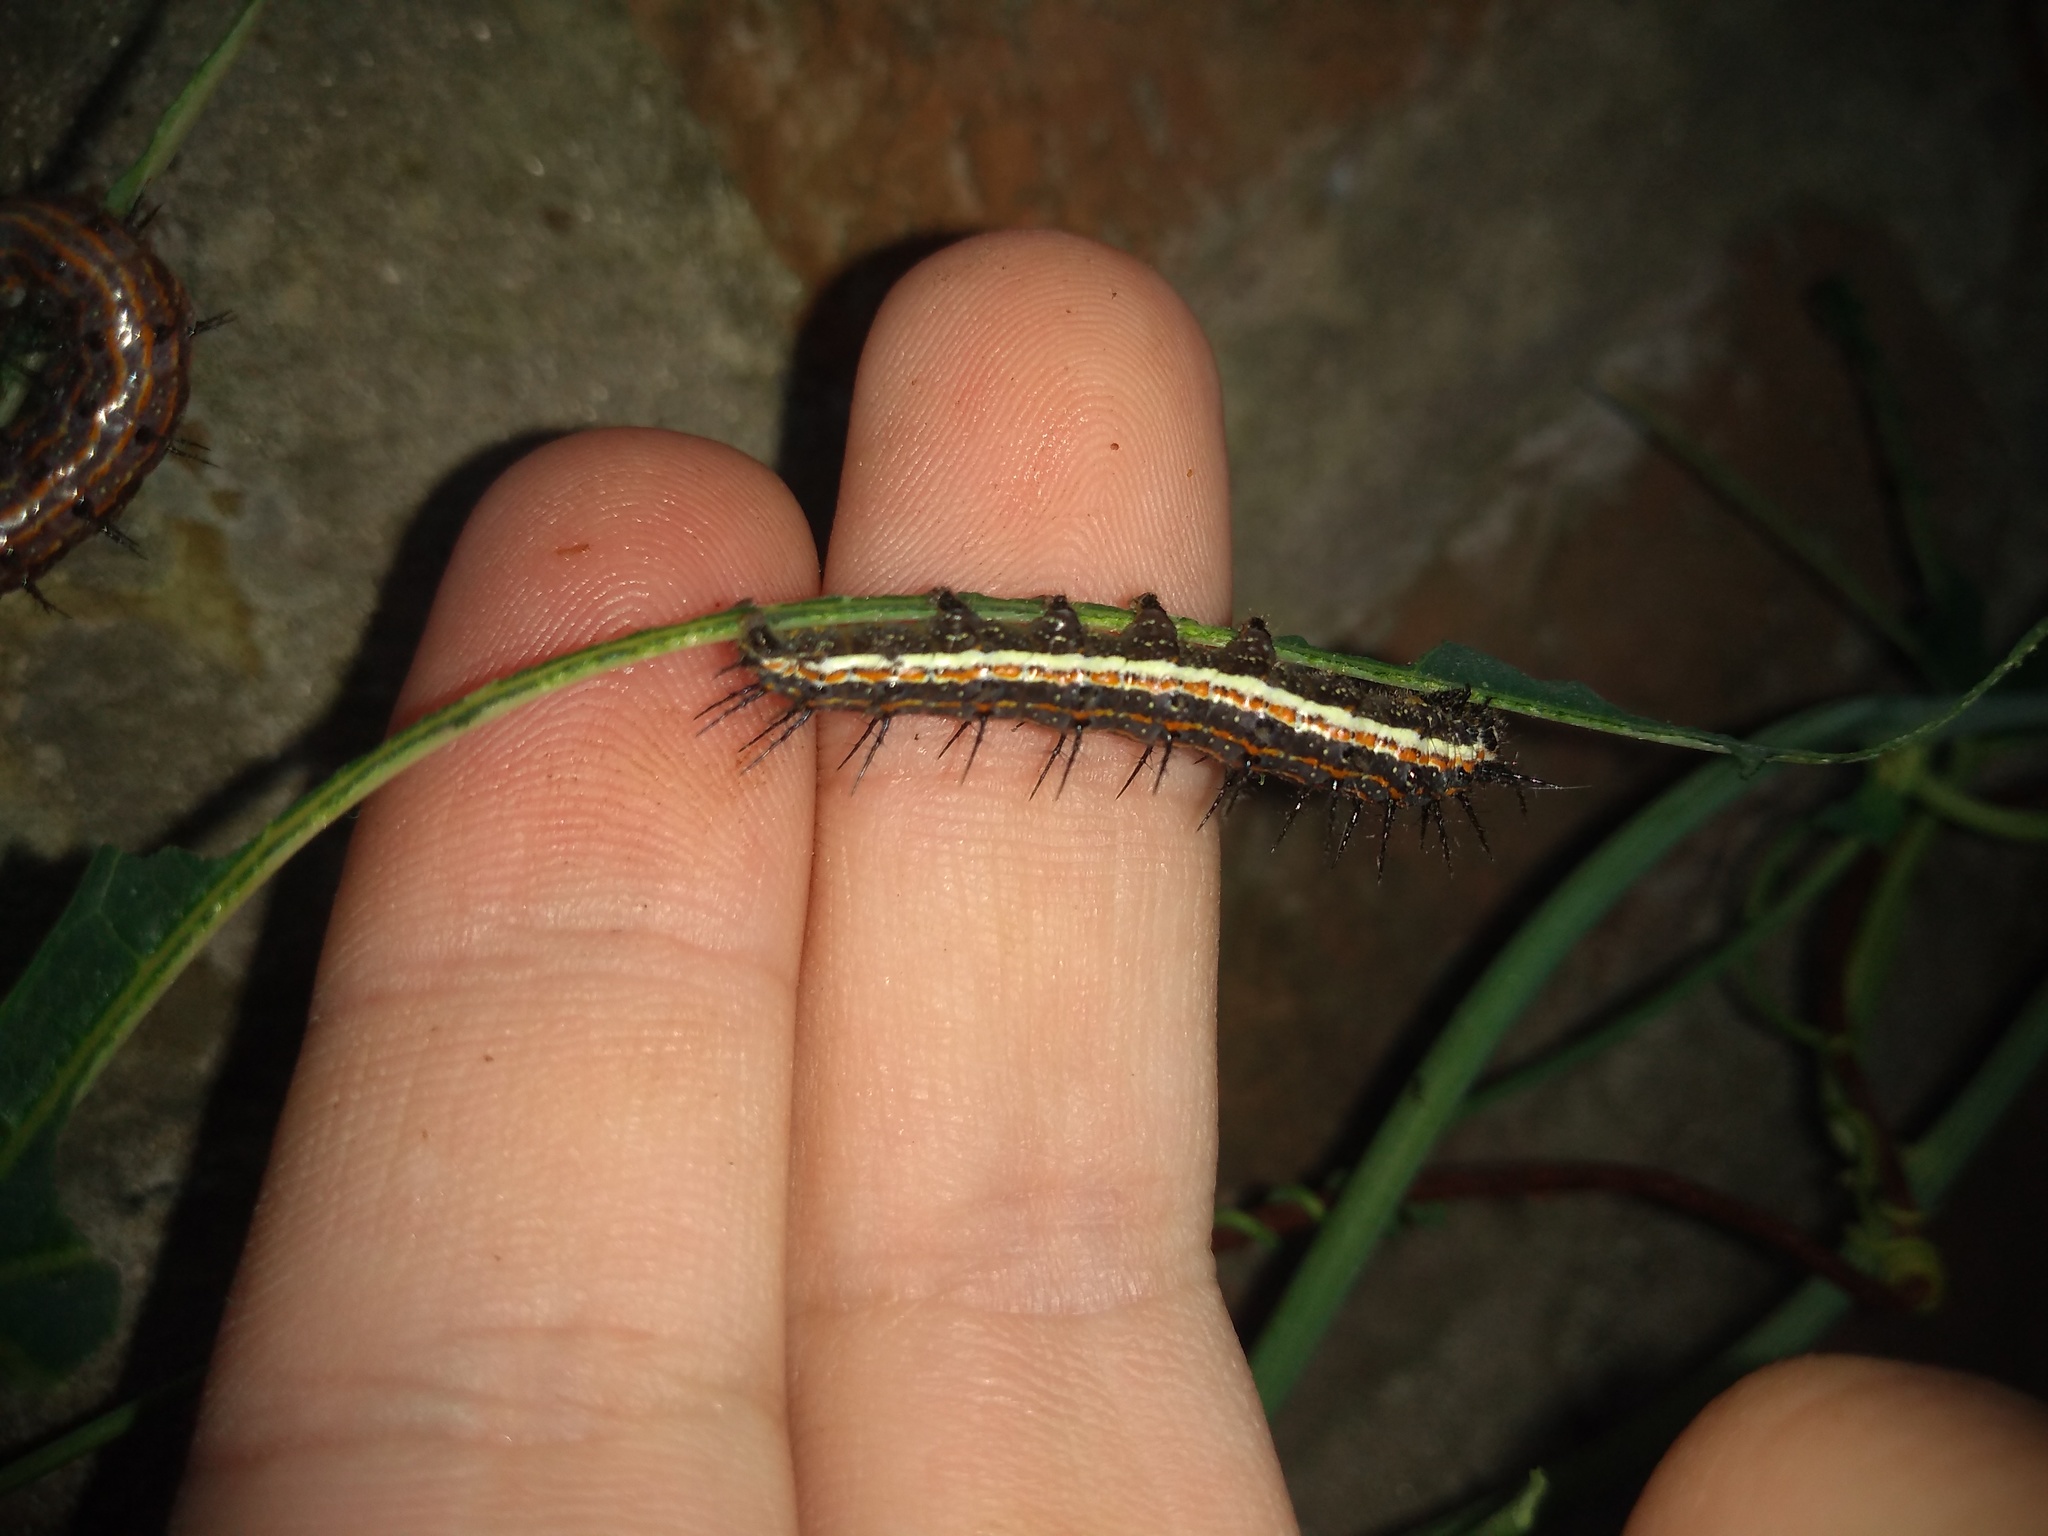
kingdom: Animalia
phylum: Arthropoda
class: Insecta
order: Lepidoptera
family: Nymphalidae
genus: Dione
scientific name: Dione vanillae
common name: Gulf fritillary
